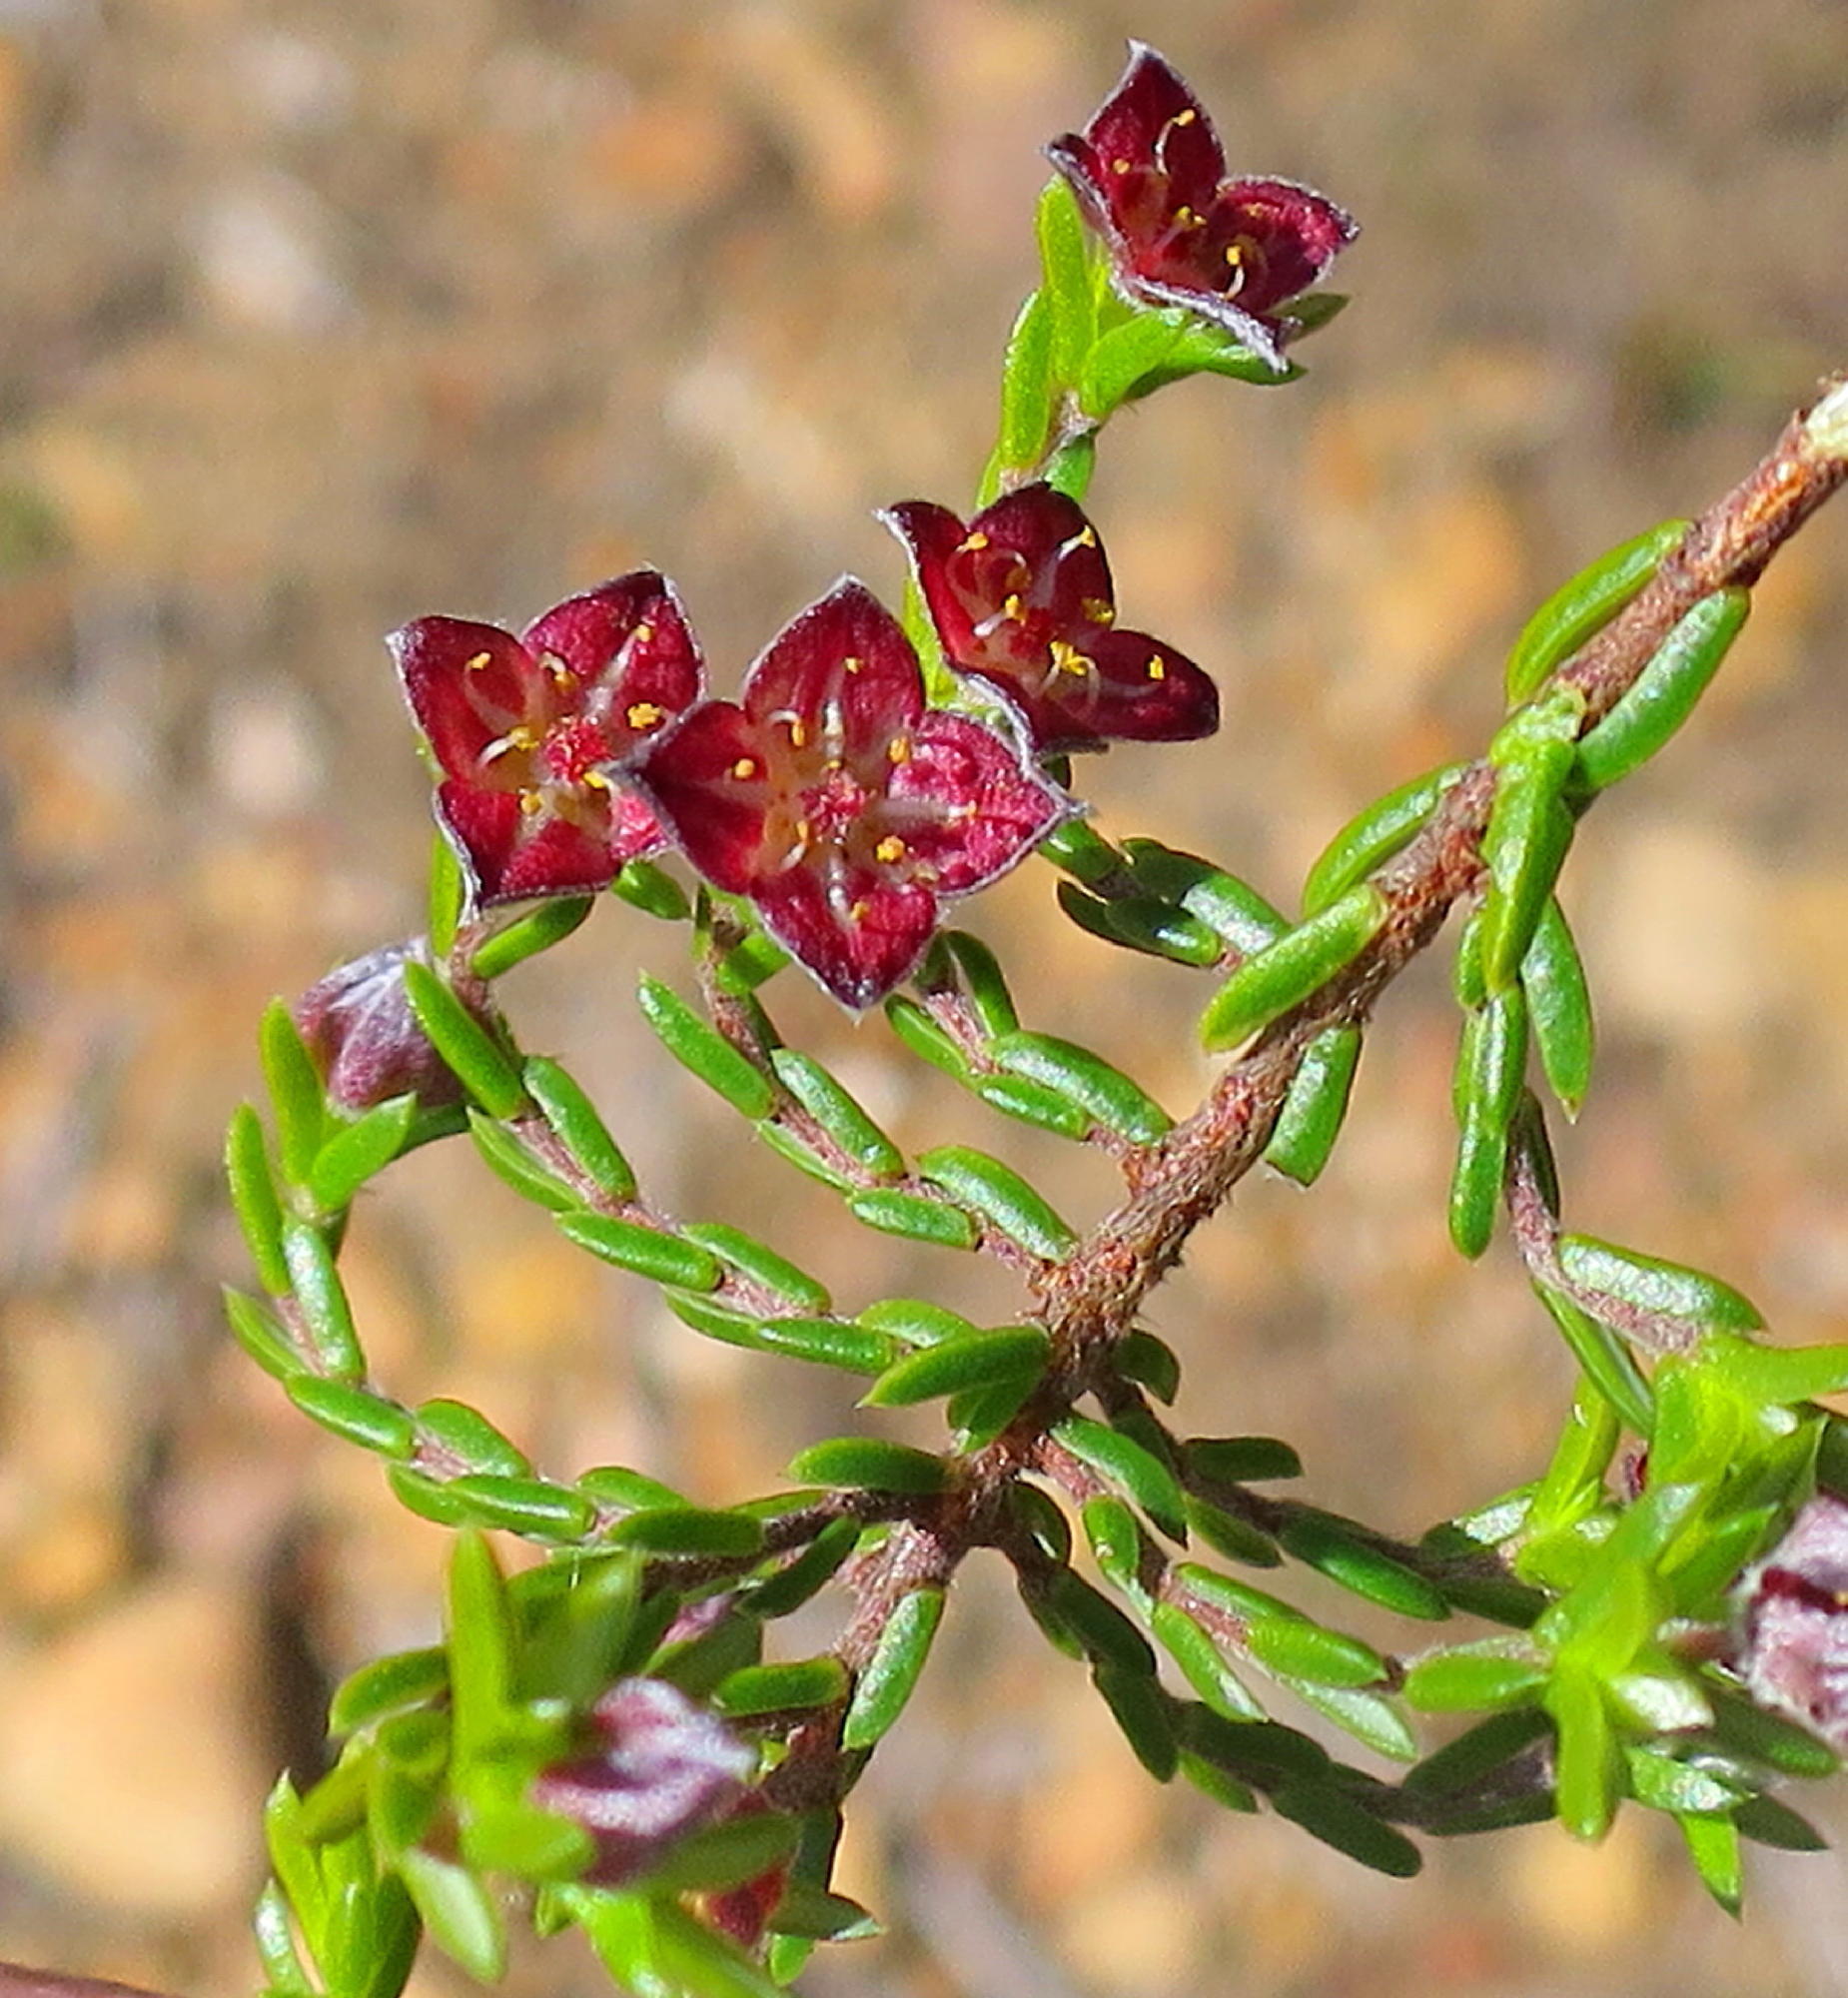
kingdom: Plantae
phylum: Tracheophyta
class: Magnoliopsida
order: Malvales
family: Thymelaeaceae
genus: Lachnaea
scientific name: Lachnaea pudens
